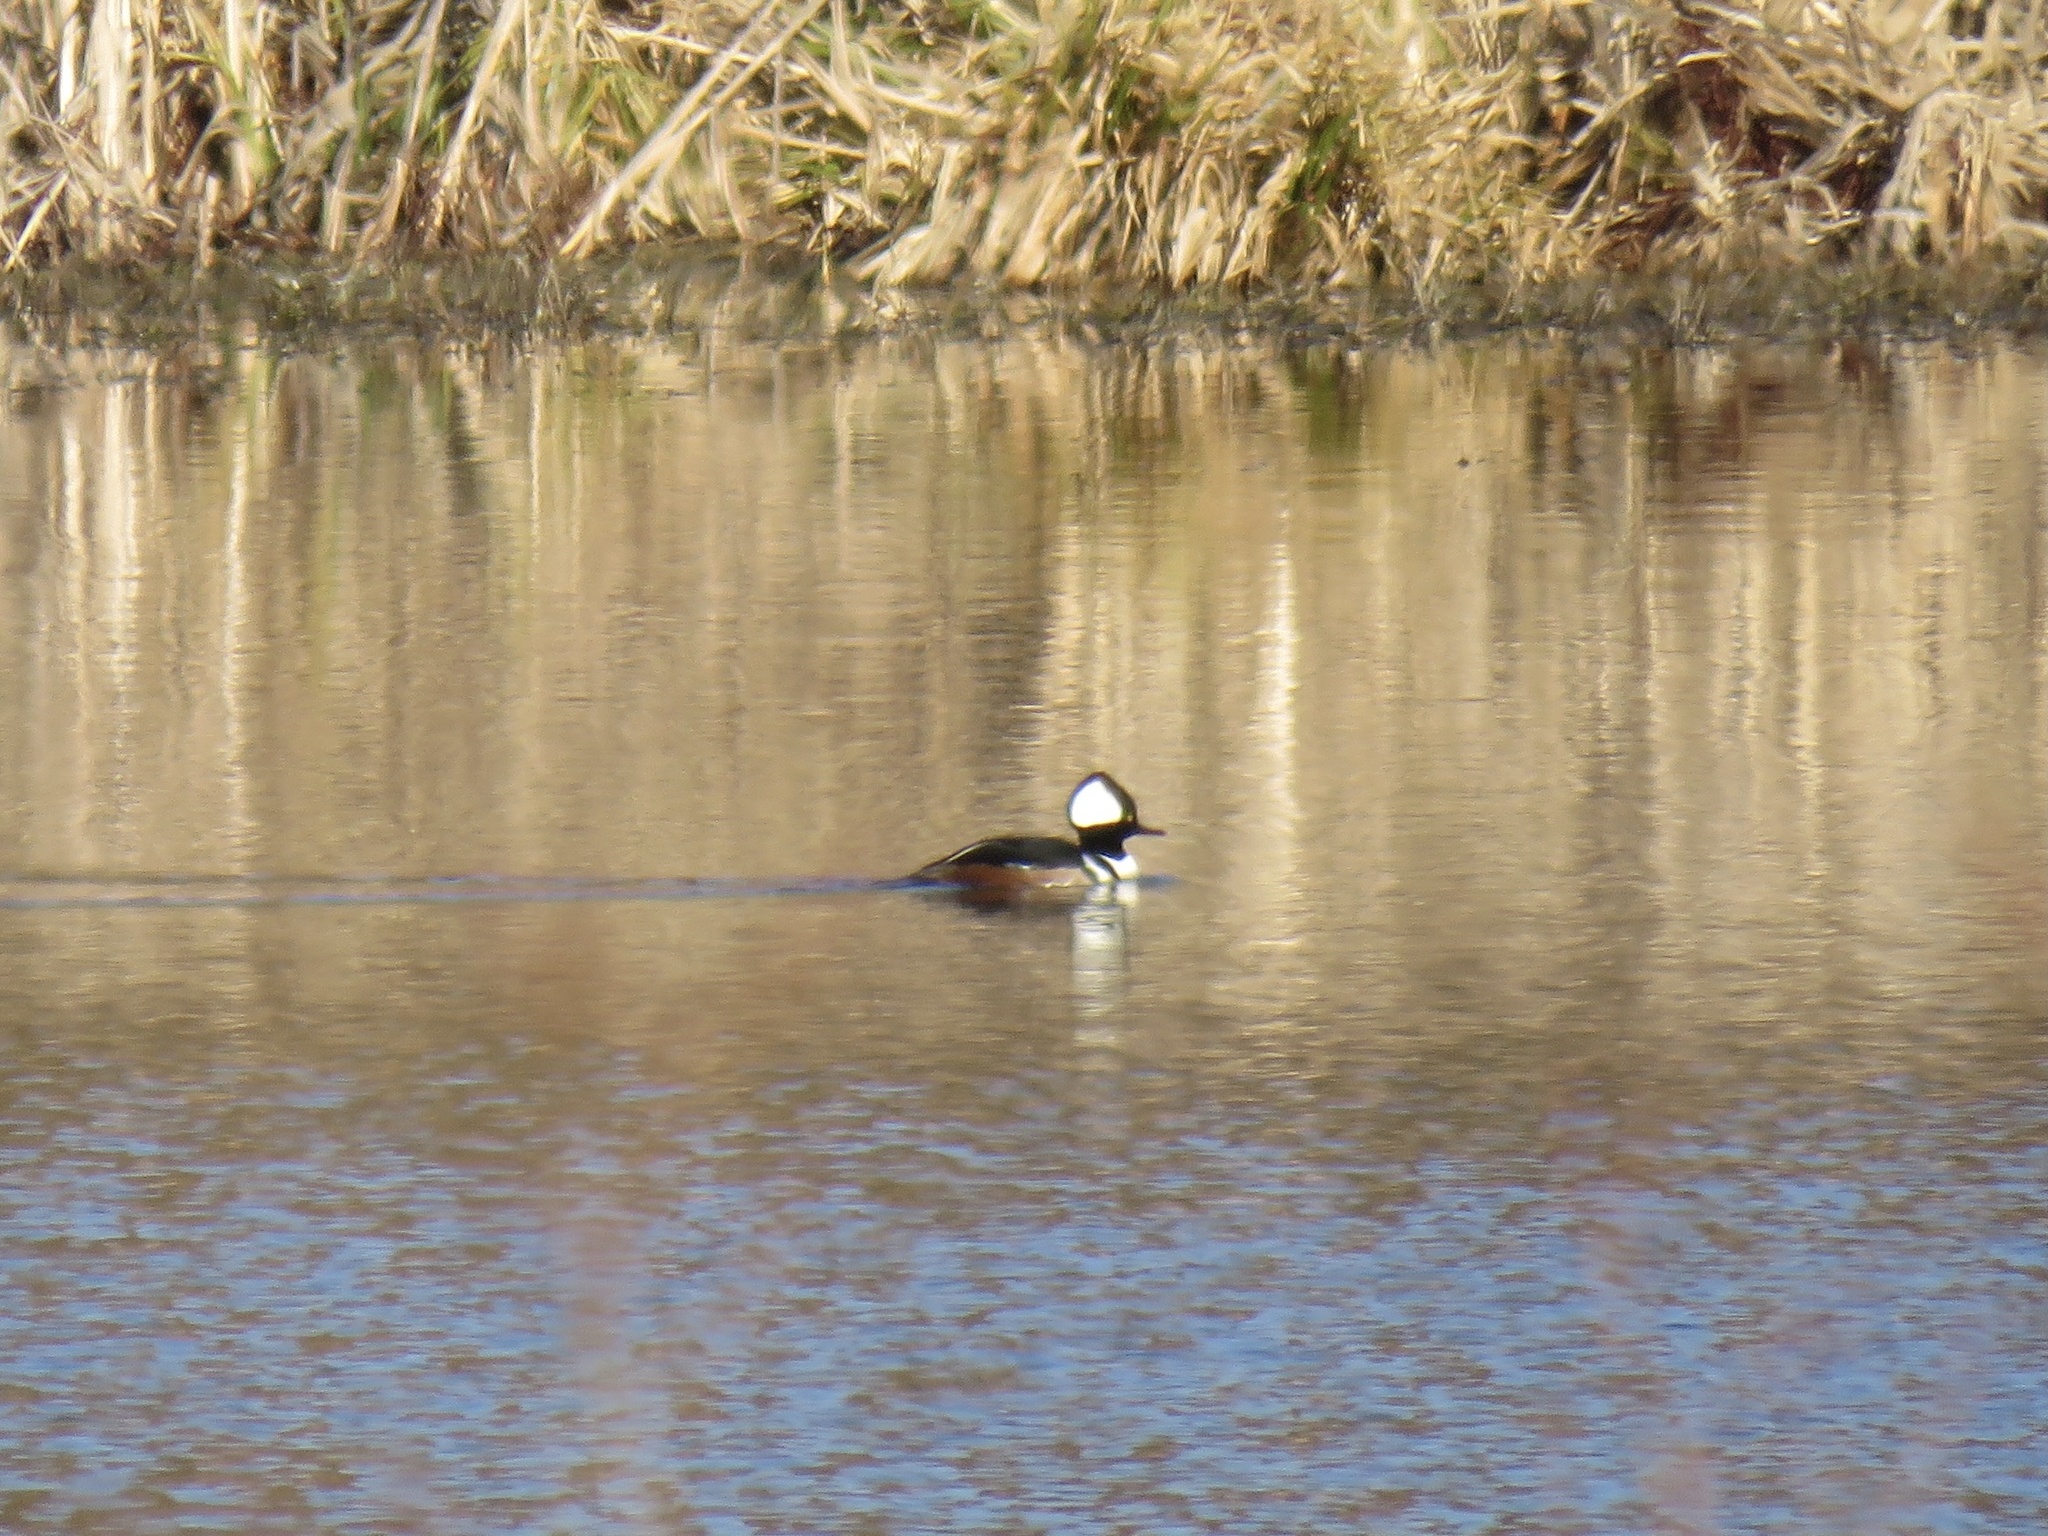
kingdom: Animalia
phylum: Chordata
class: Aves
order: Anseriformes
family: Anatidae
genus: Lophodytes
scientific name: Lophodytes cucullatus
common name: Hooded merganser
